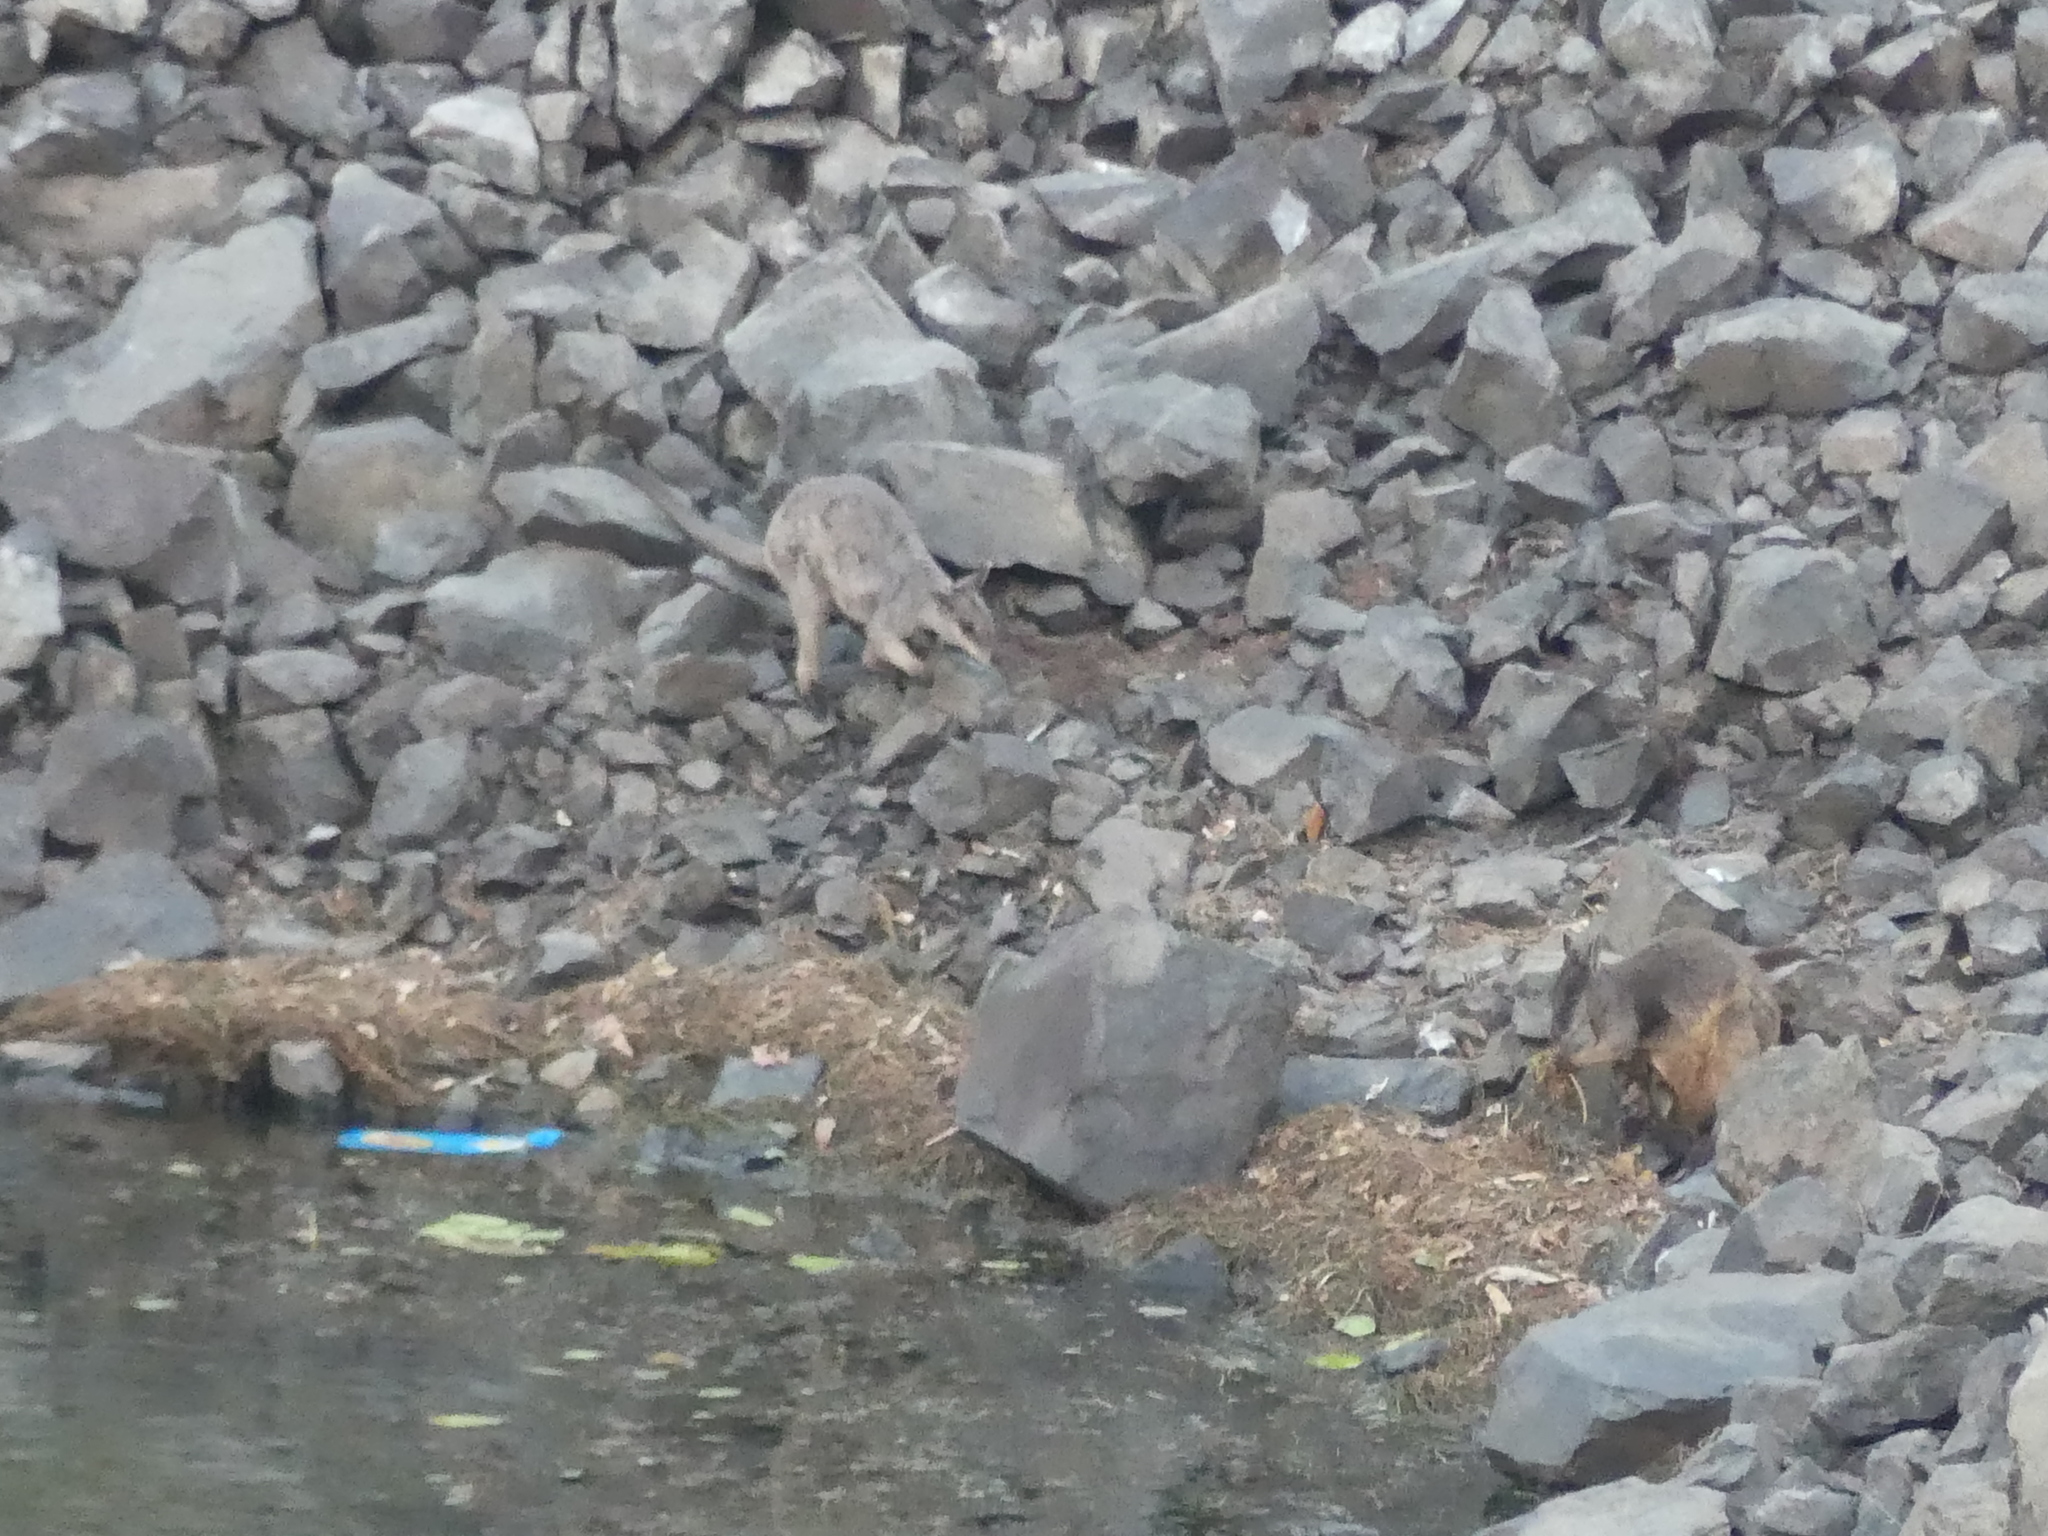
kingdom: Animalia
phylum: Chordata
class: Mammalia
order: Diprotodontia
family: Macropodidae
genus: Petrogale
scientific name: Petrogale inornata
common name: Unadorned rock wallaby
